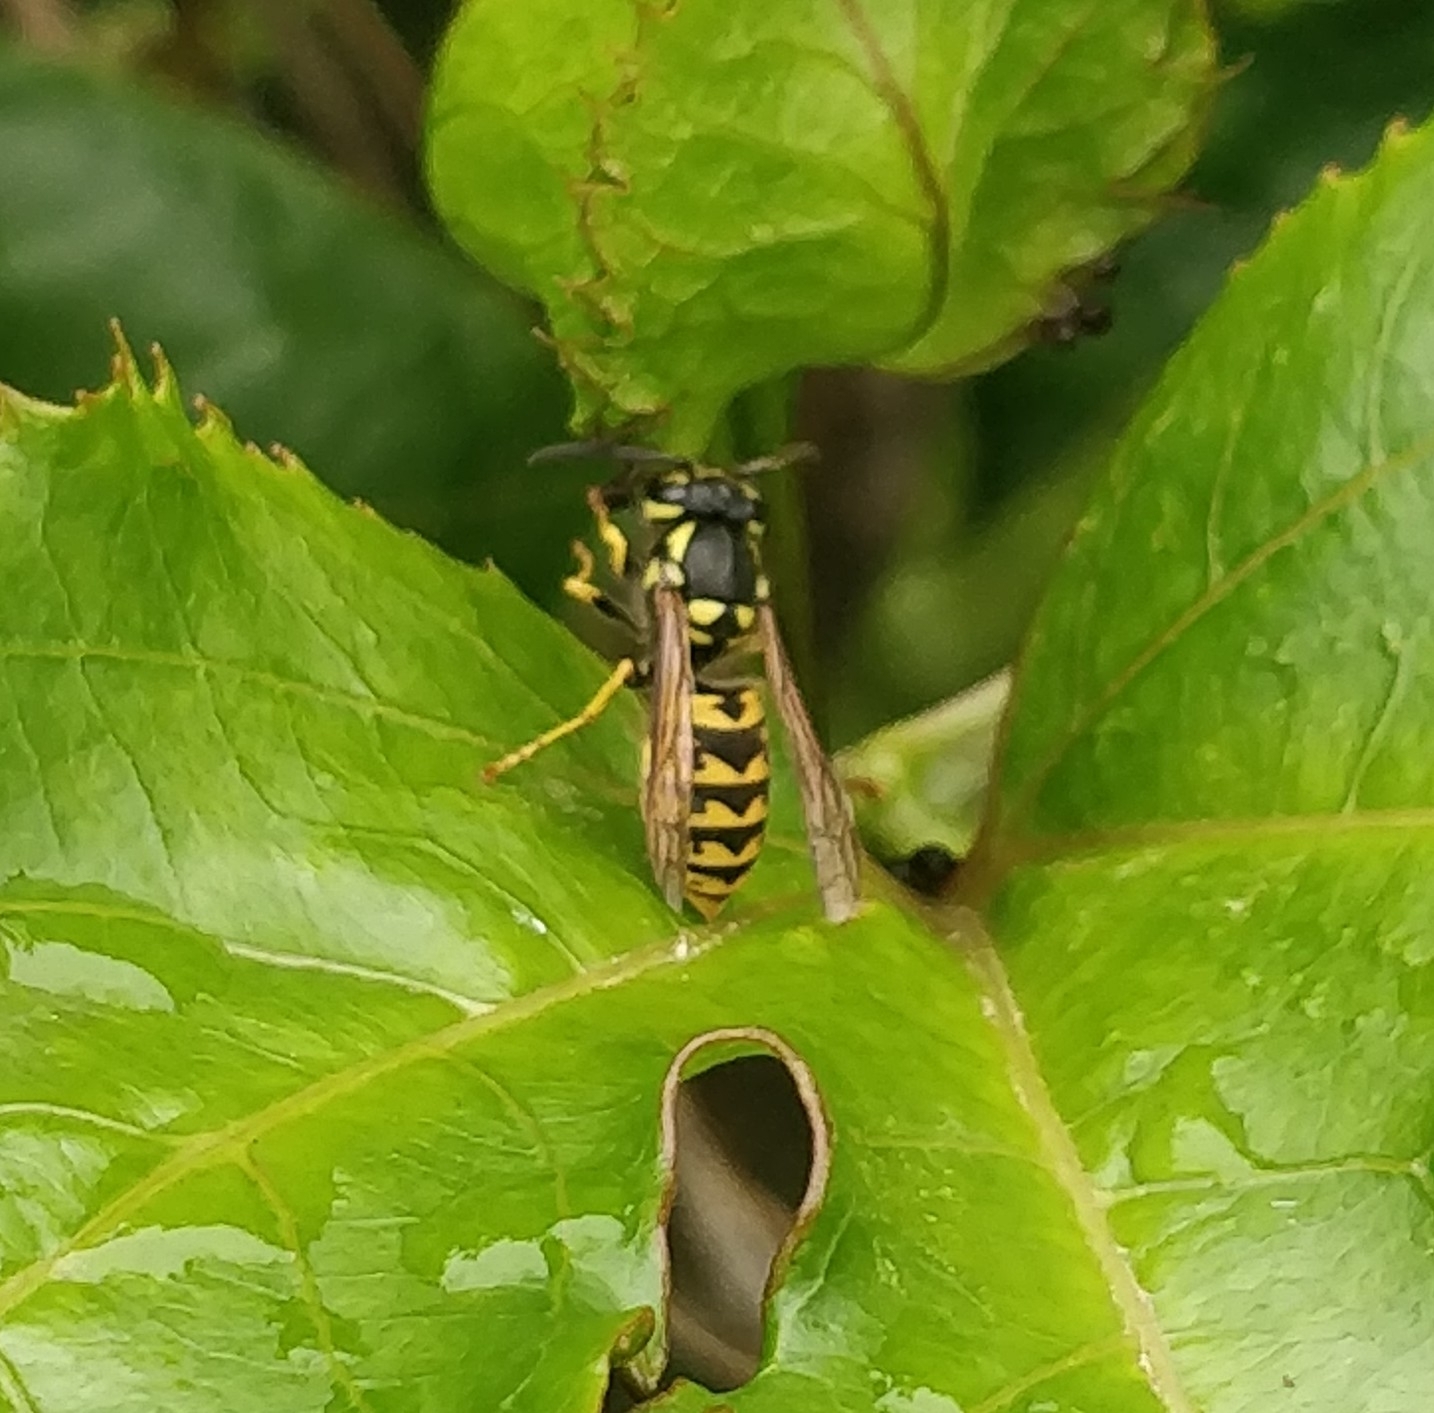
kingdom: Animalia
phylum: Arthropoda
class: Insecta
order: Hymenoptera
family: Vespidae
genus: Vespula
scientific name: Vespula germanica
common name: German wasp
